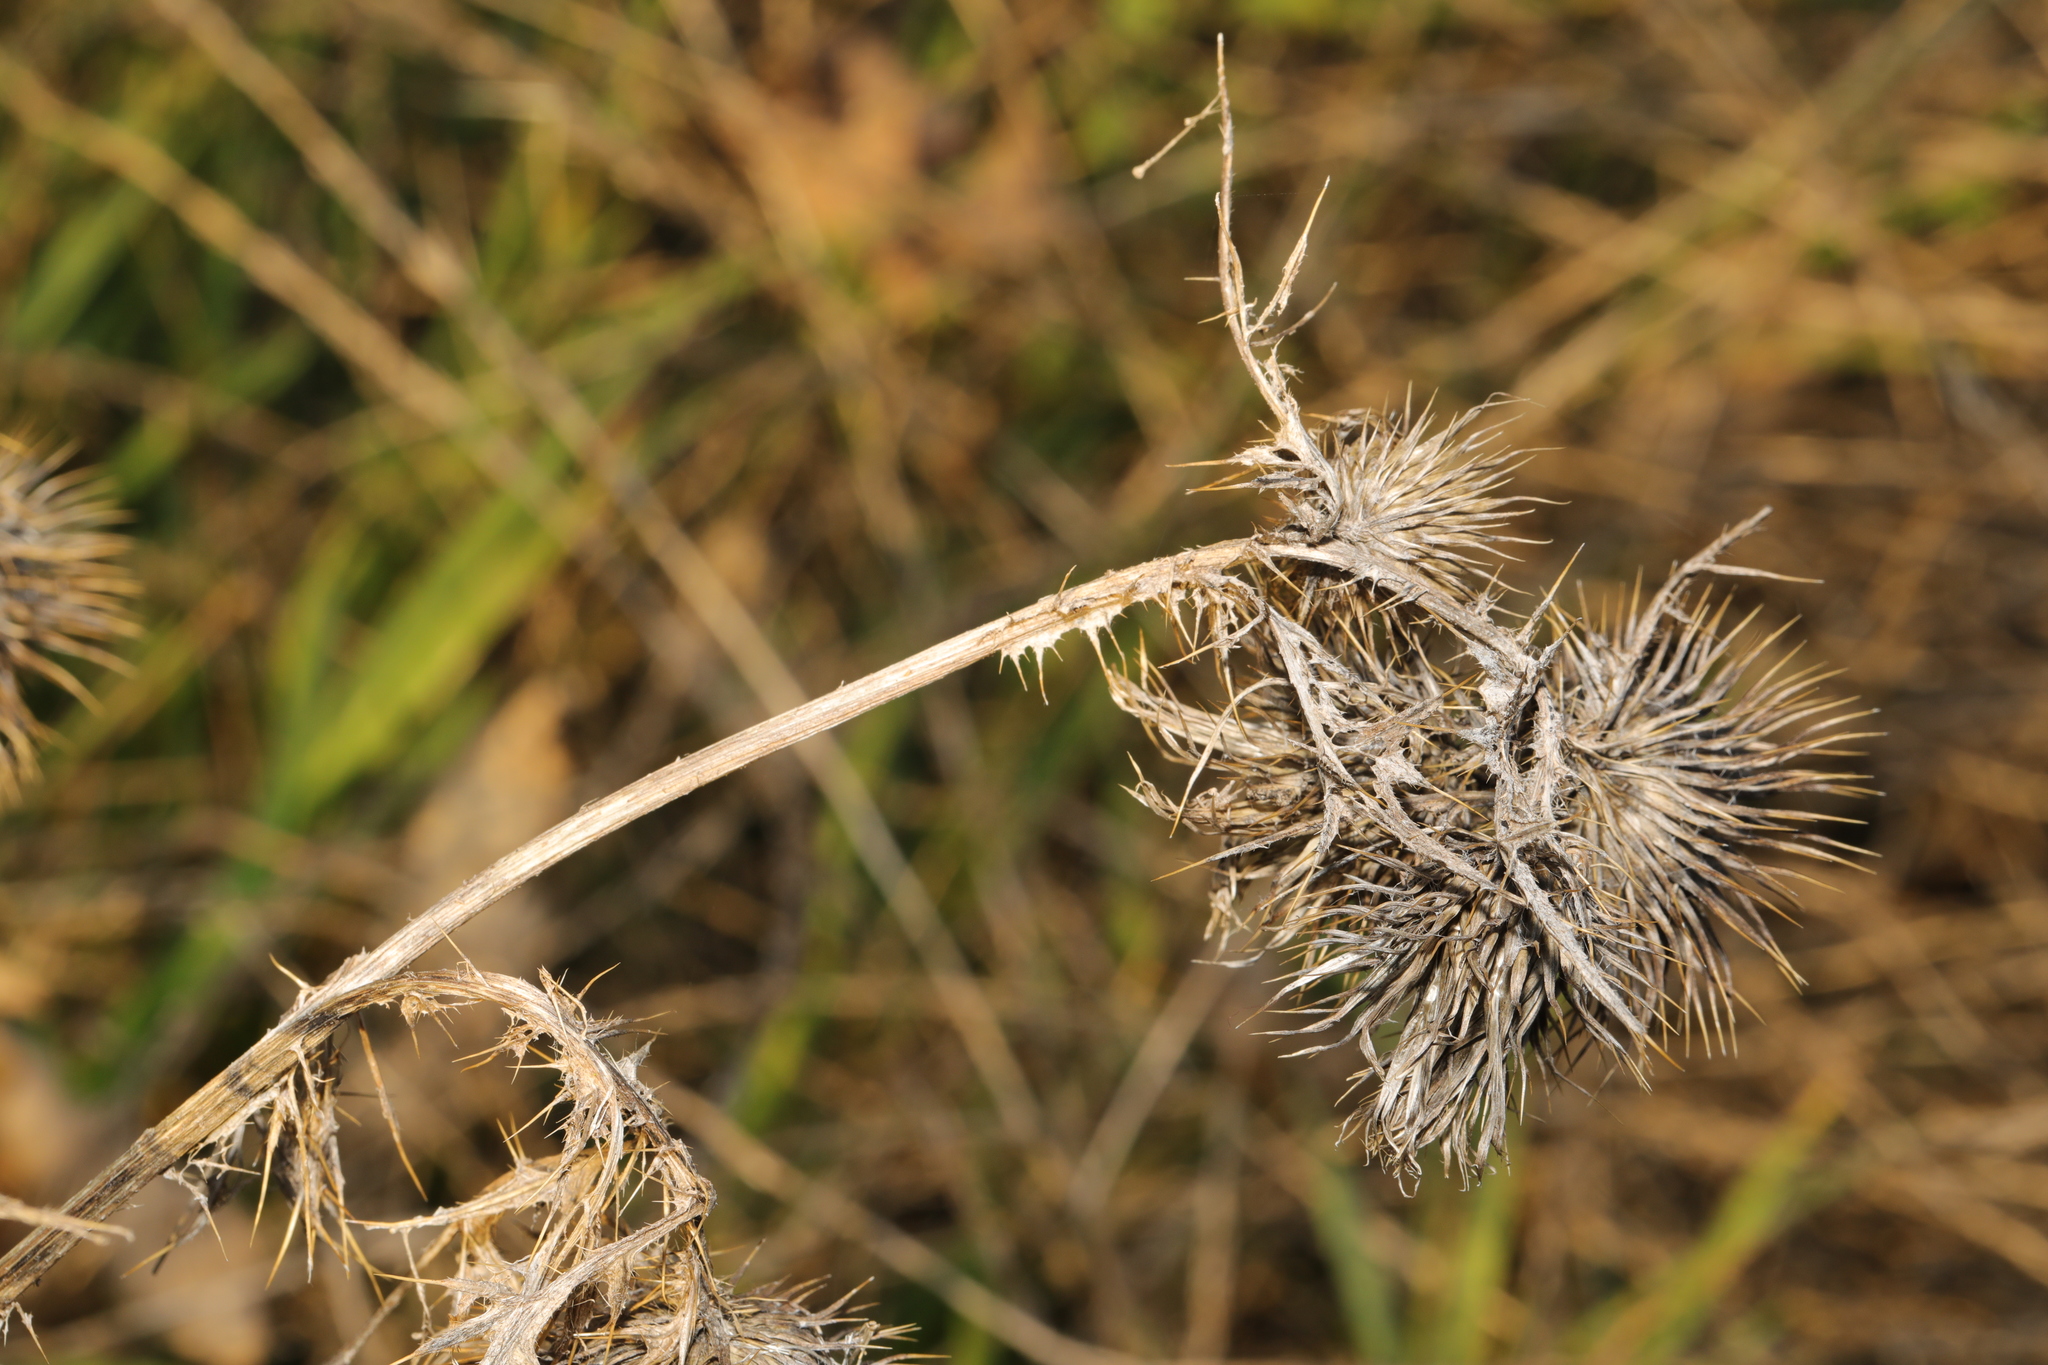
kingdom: Plantae
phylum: Tracheophyta
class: Magnoliopsida
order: Asterales
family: Asteraceae
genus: Cirsium
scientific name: Cirsium vulgare
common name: Bull thistle
